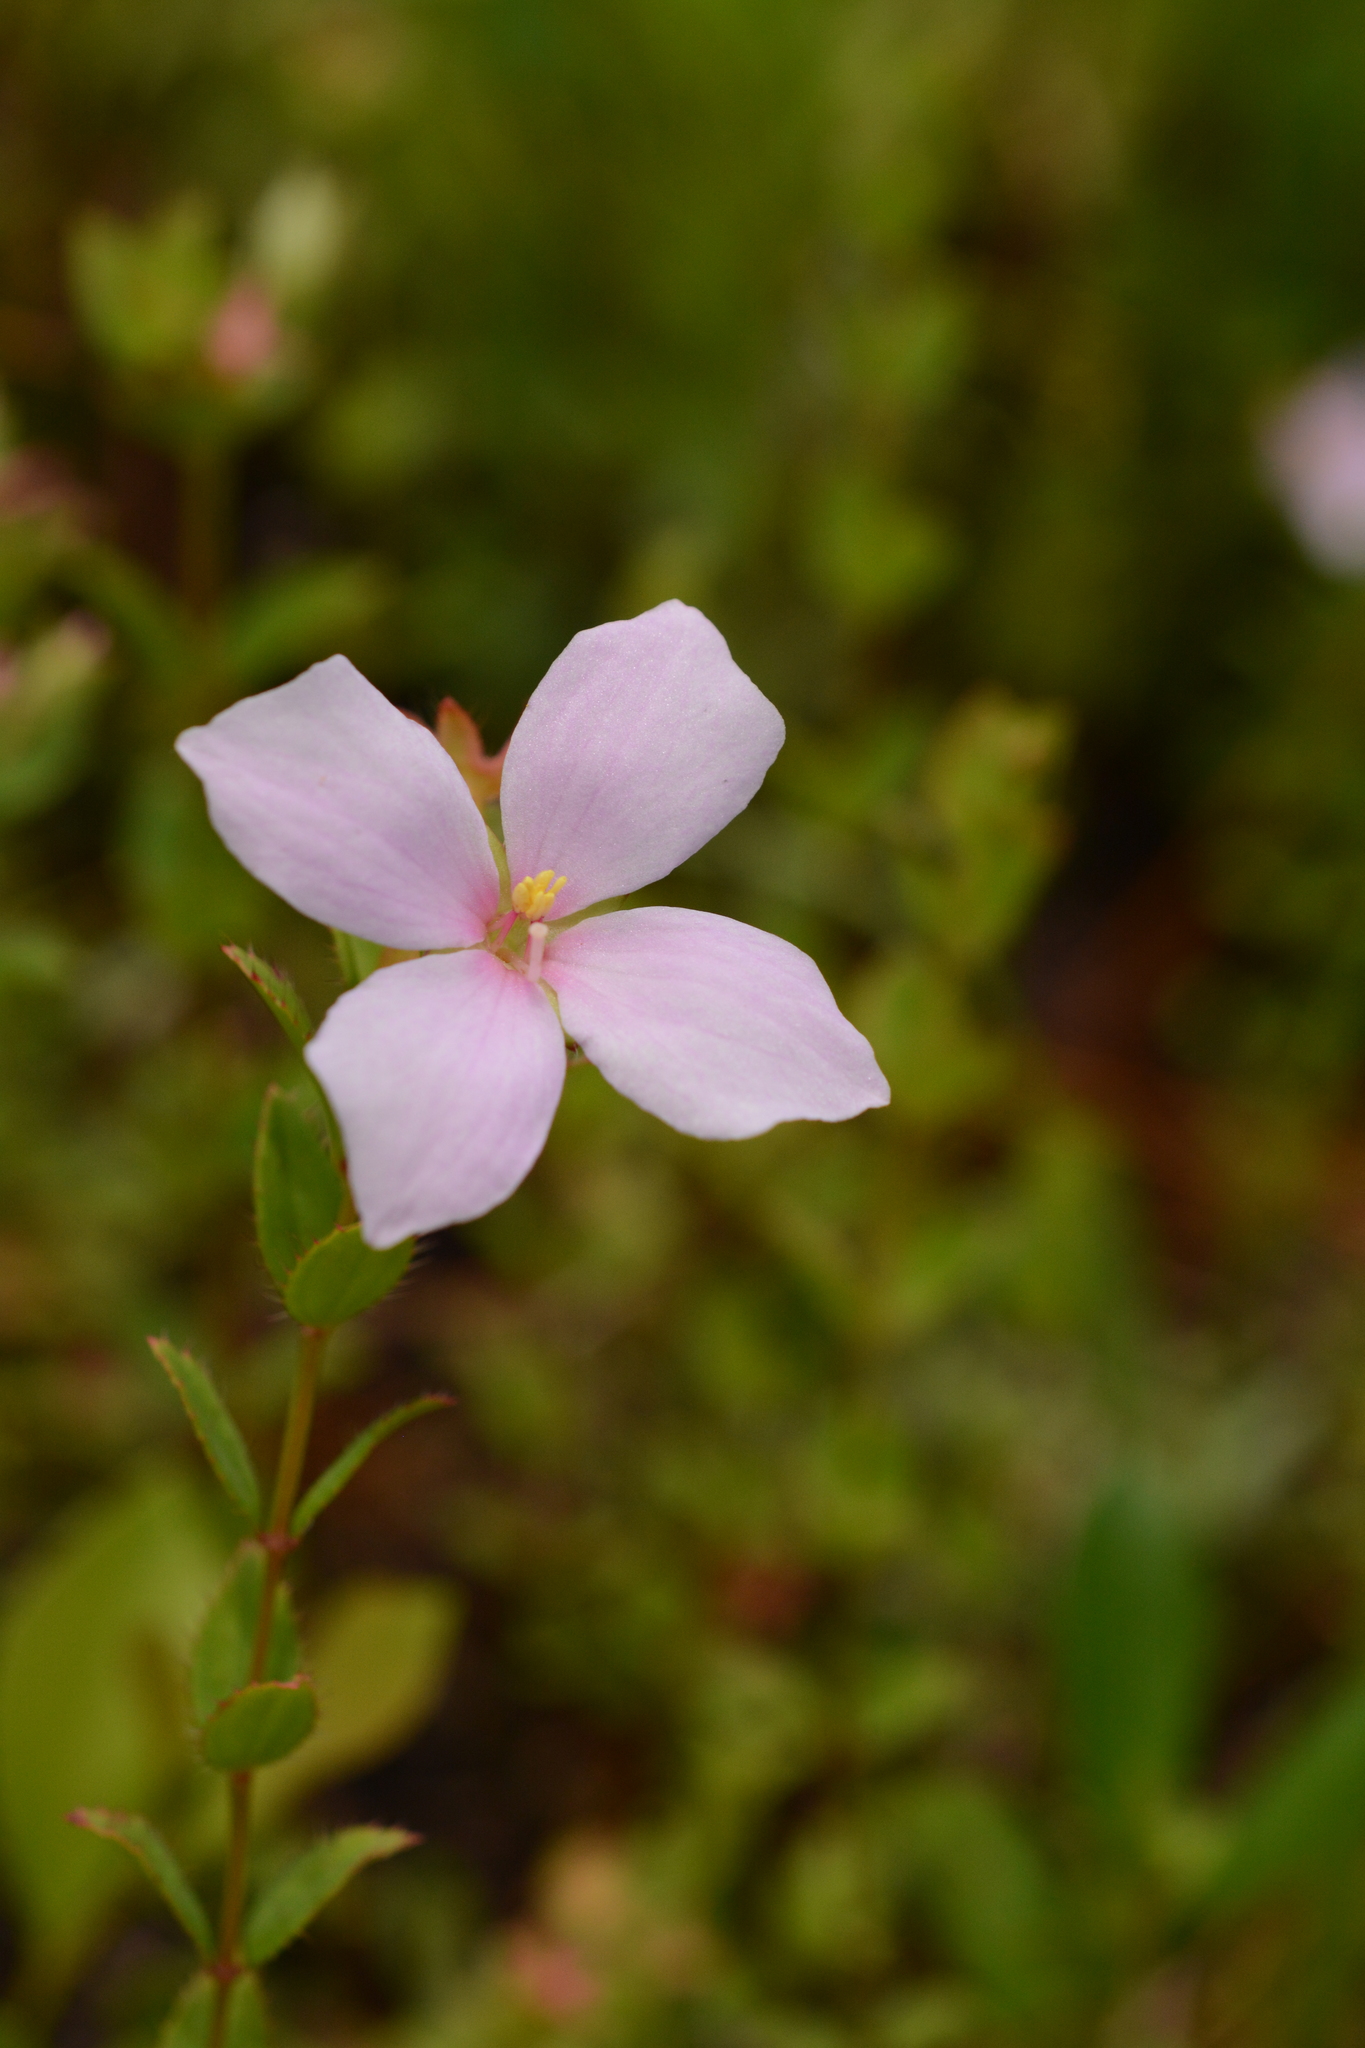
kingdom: Plantae
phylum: Tracheophyta
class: Magnoliopsida
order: Myrtales
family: Melastomataceae
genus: Rhexia
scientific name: Rhexia petiolata
